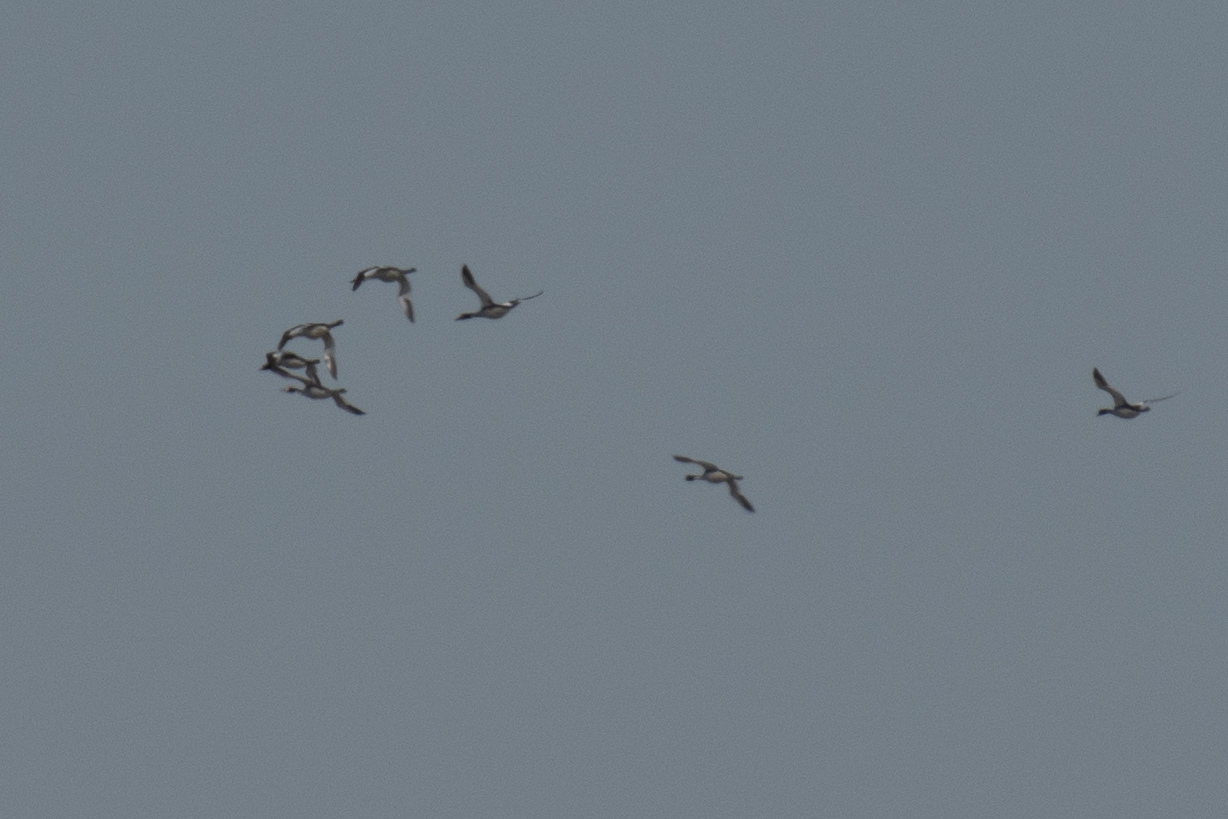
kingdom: Animalia
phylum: Chordata
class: Aves
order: Podicipediformes
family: Podicipedidae
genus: Podiceps
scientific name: Podiceps cristatus
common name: Great crested grebe
